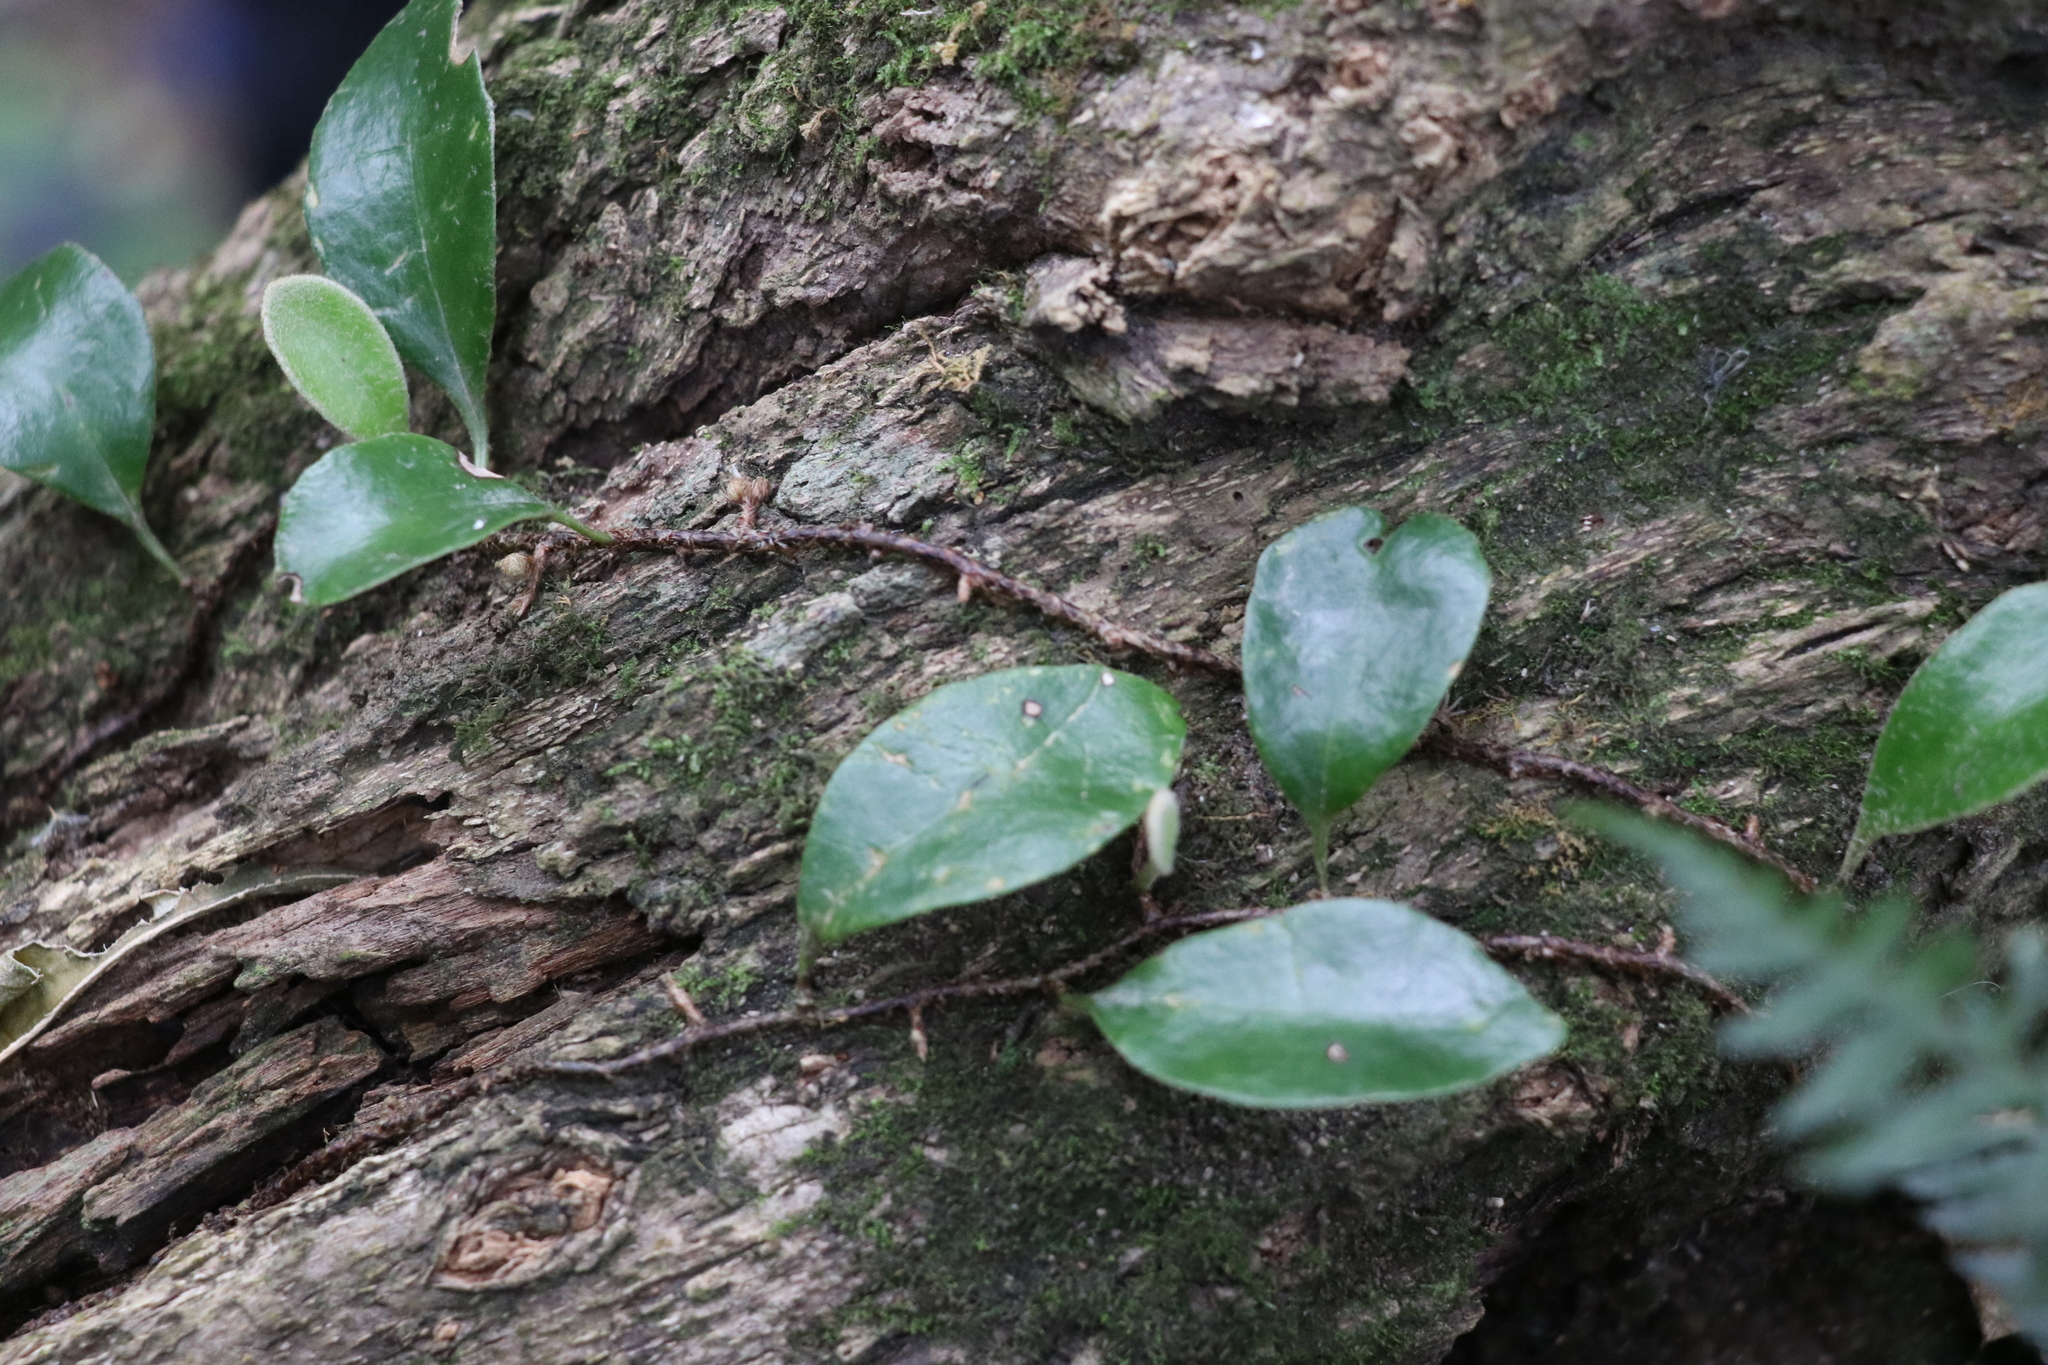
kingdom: Plantae
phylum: Tracheophyta
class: Polypodiopsida
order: Polypodiales
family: Polypodiaceae
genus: Pyrrosia
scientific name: Pyrrosia eleagnifolia
